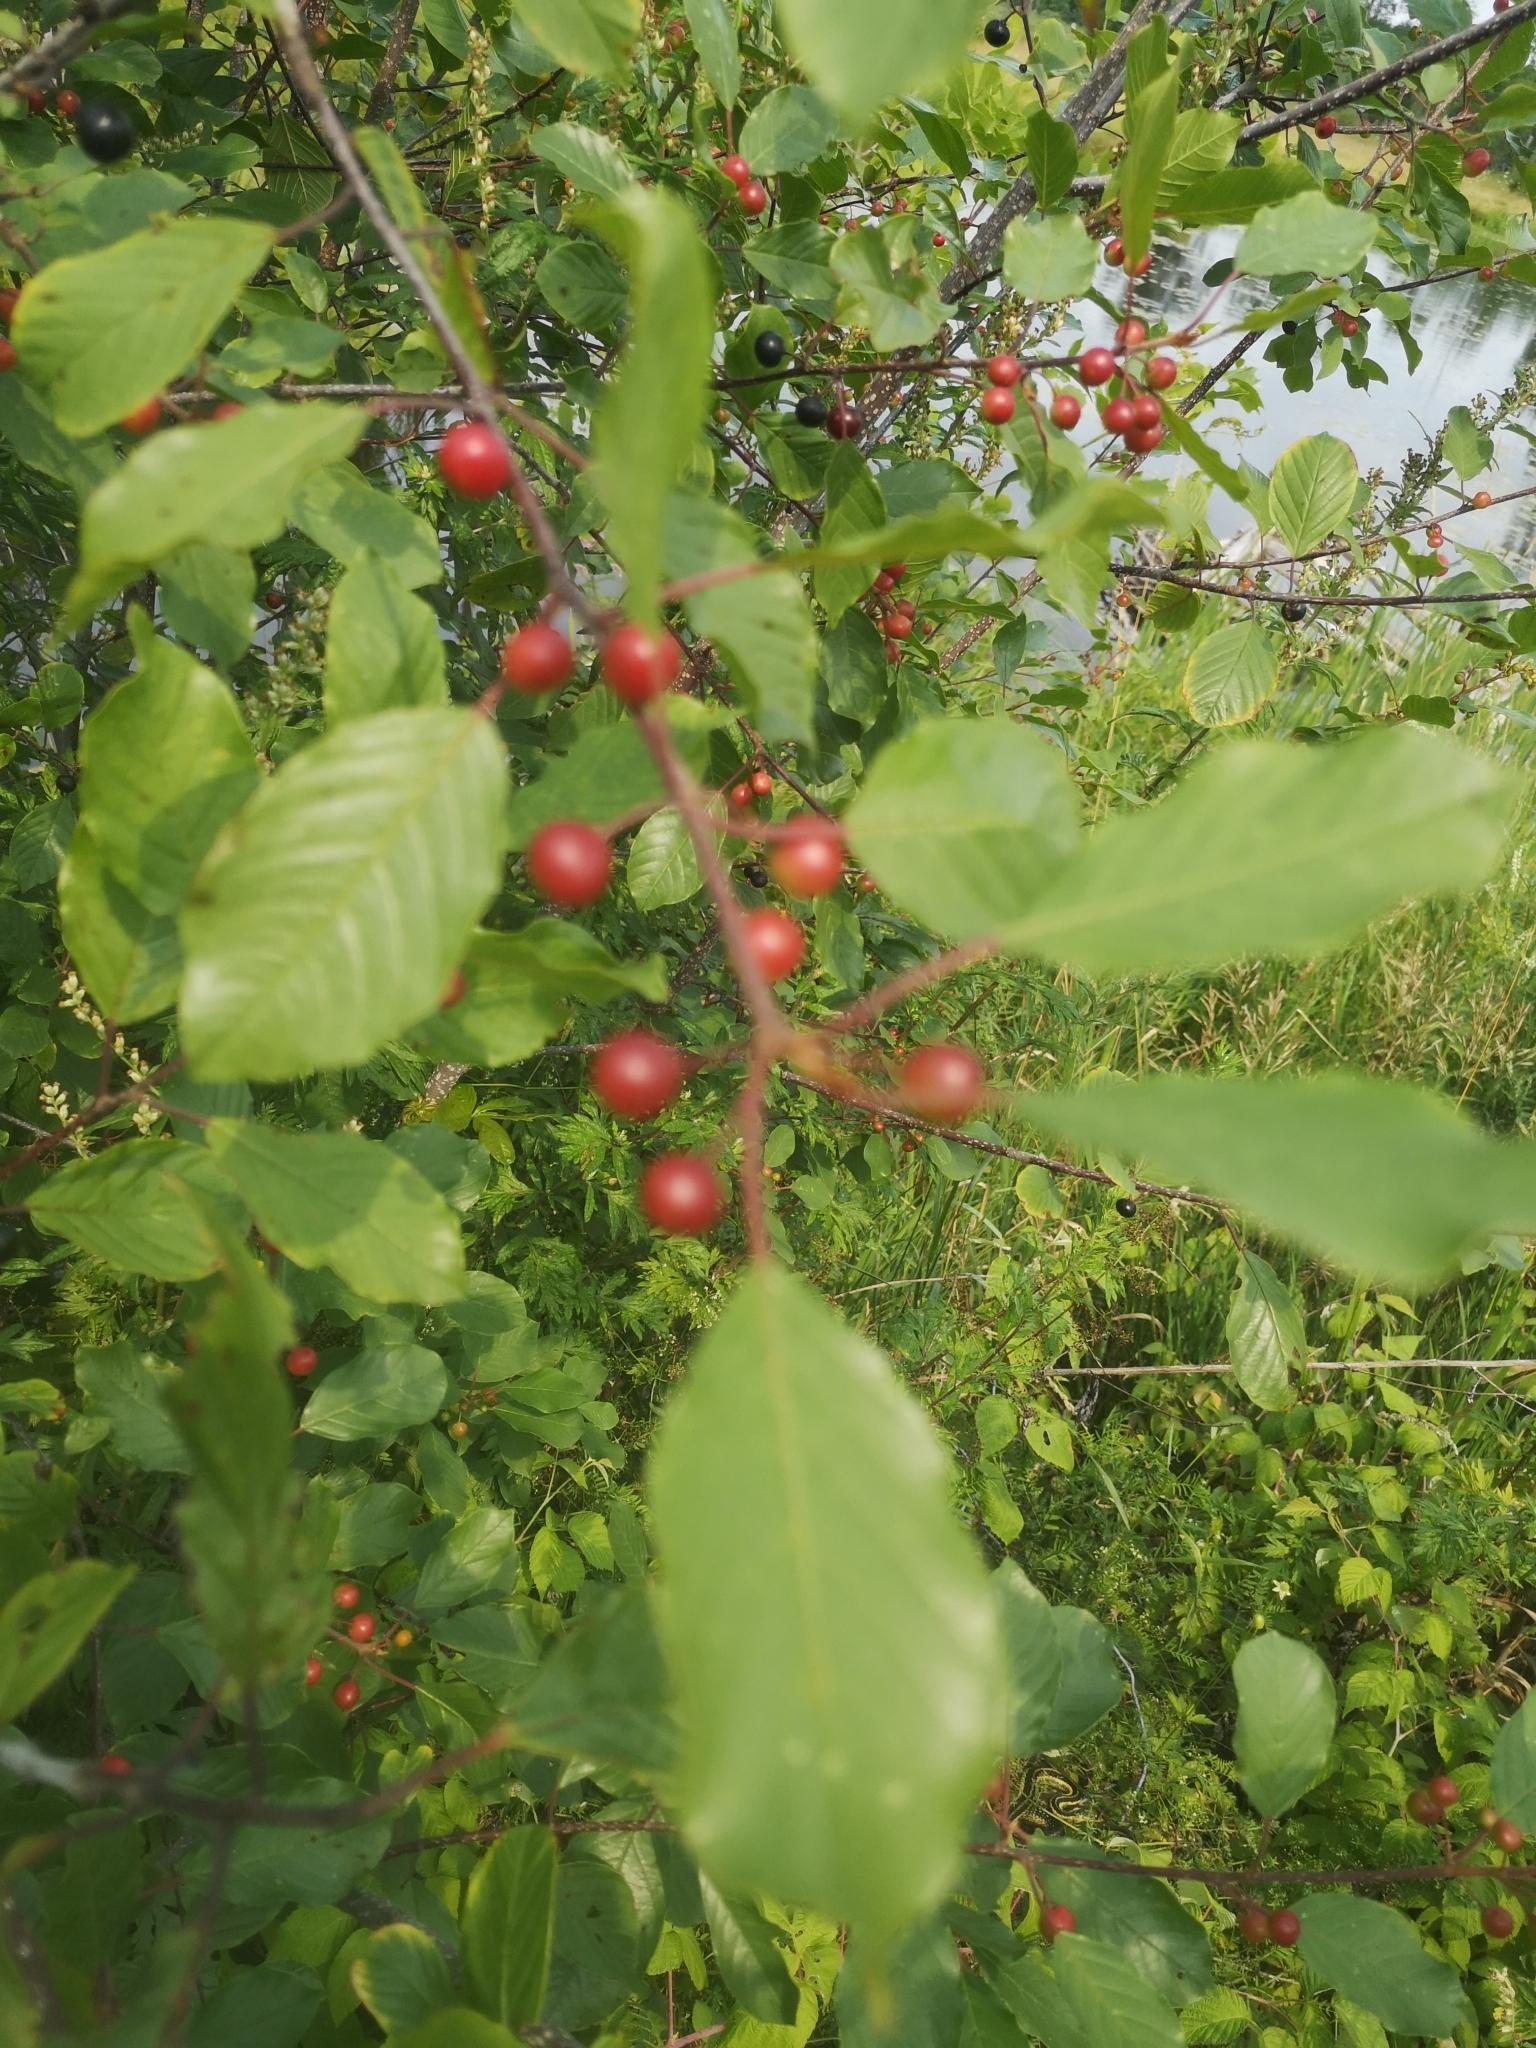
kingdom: Plantae
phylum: Tracheophyta
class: Magnoliopsida
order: Rosales
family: Rhamnaceae
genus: Frangula
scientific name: Frangula alnus
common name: Alder buckthorn
